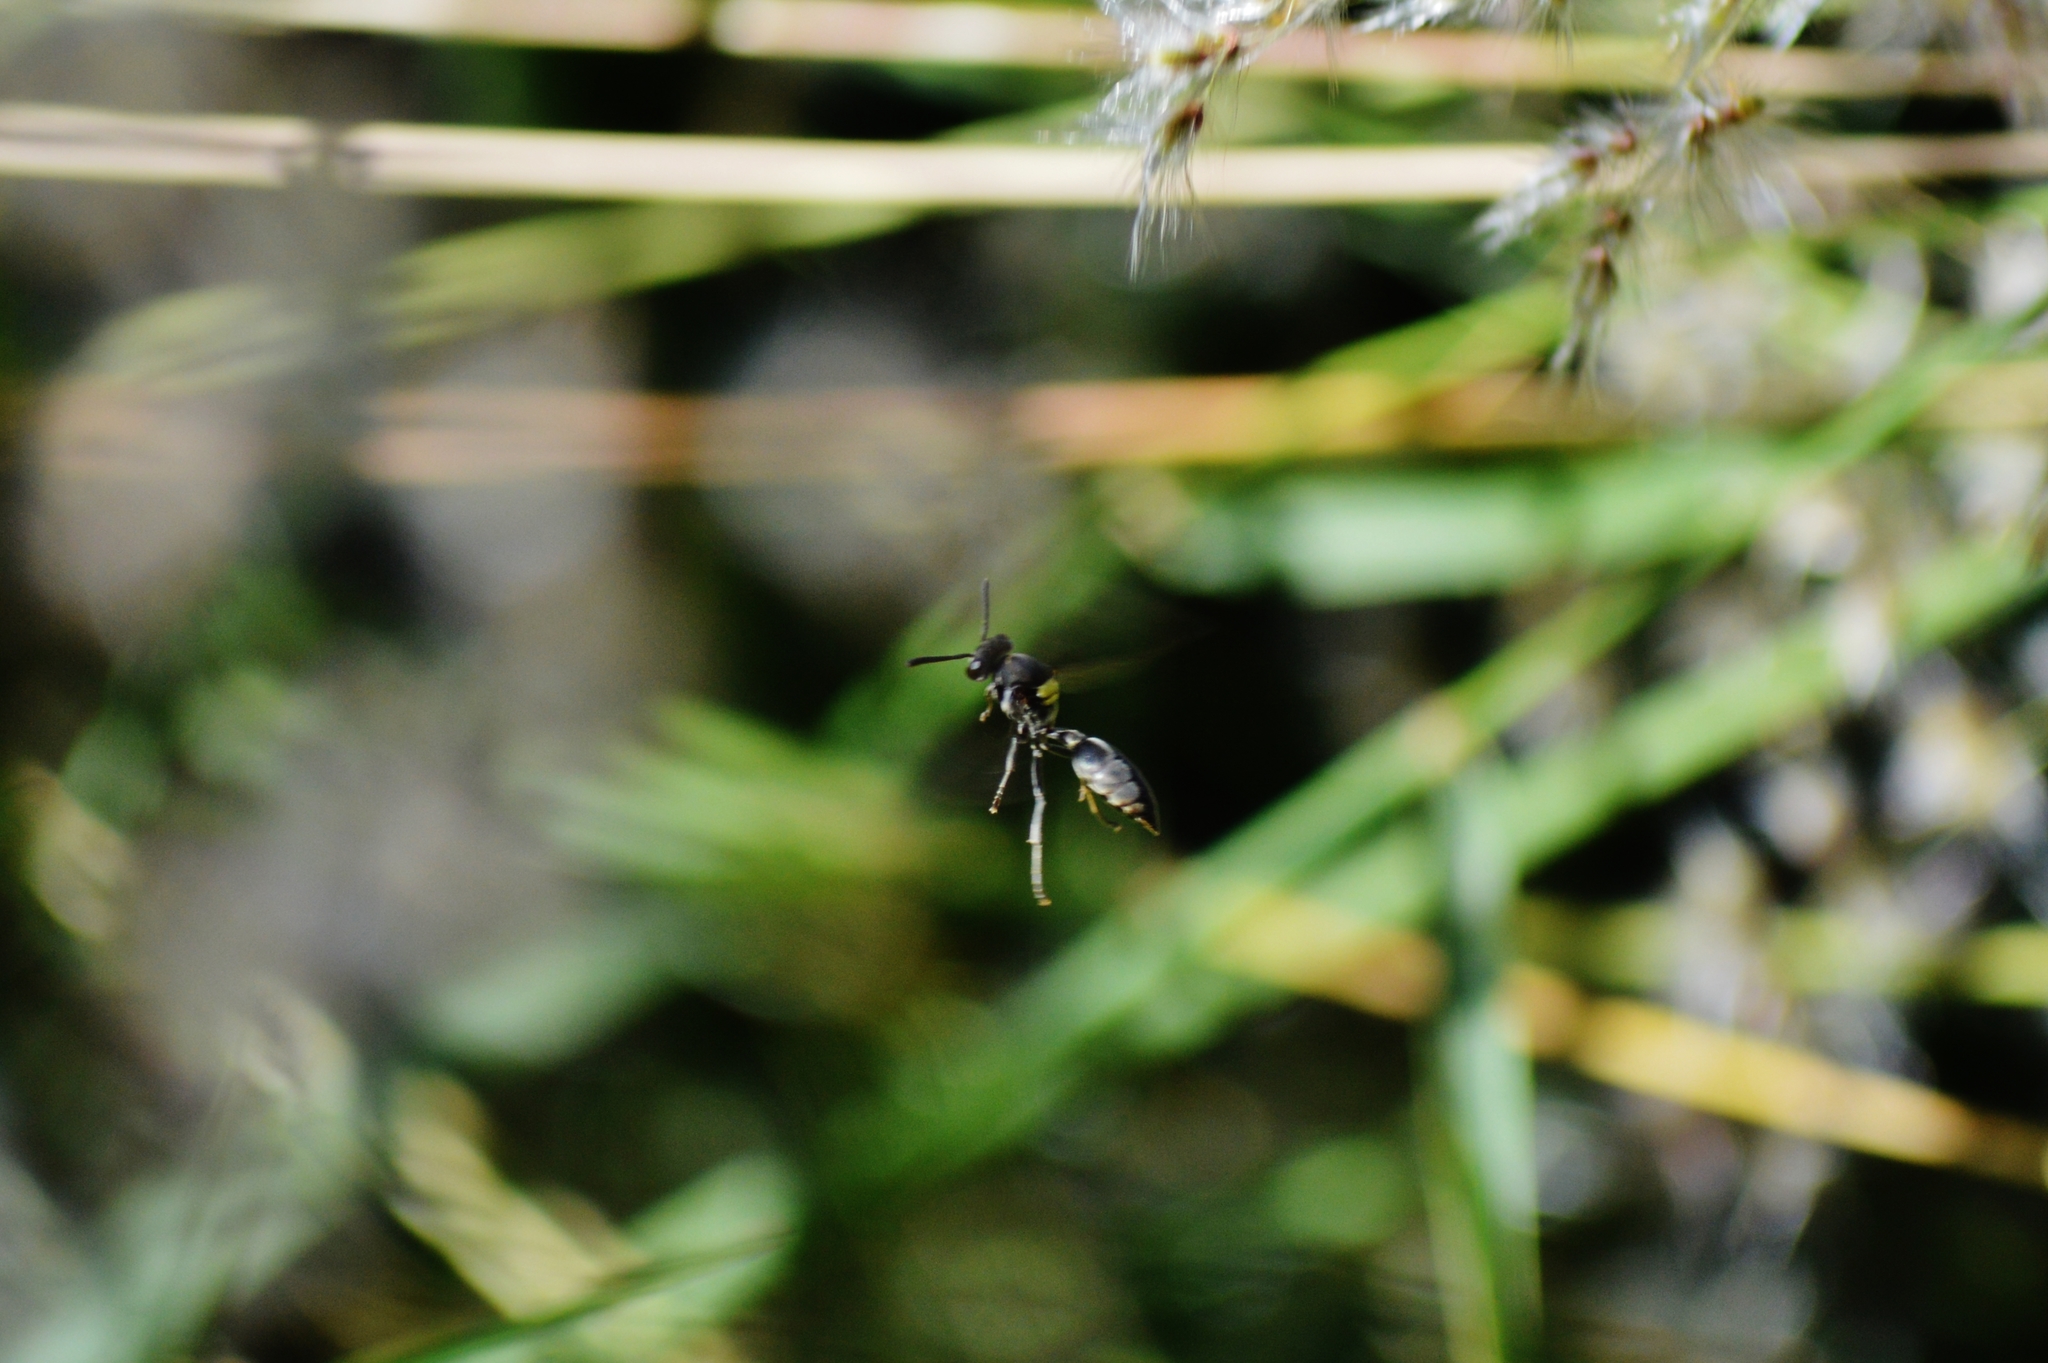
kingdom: Animalia
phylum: Arthropoda
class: Insecta
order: Hymenoptera
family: Eumenidae
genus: Polybia
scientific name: Polybia jurinei
